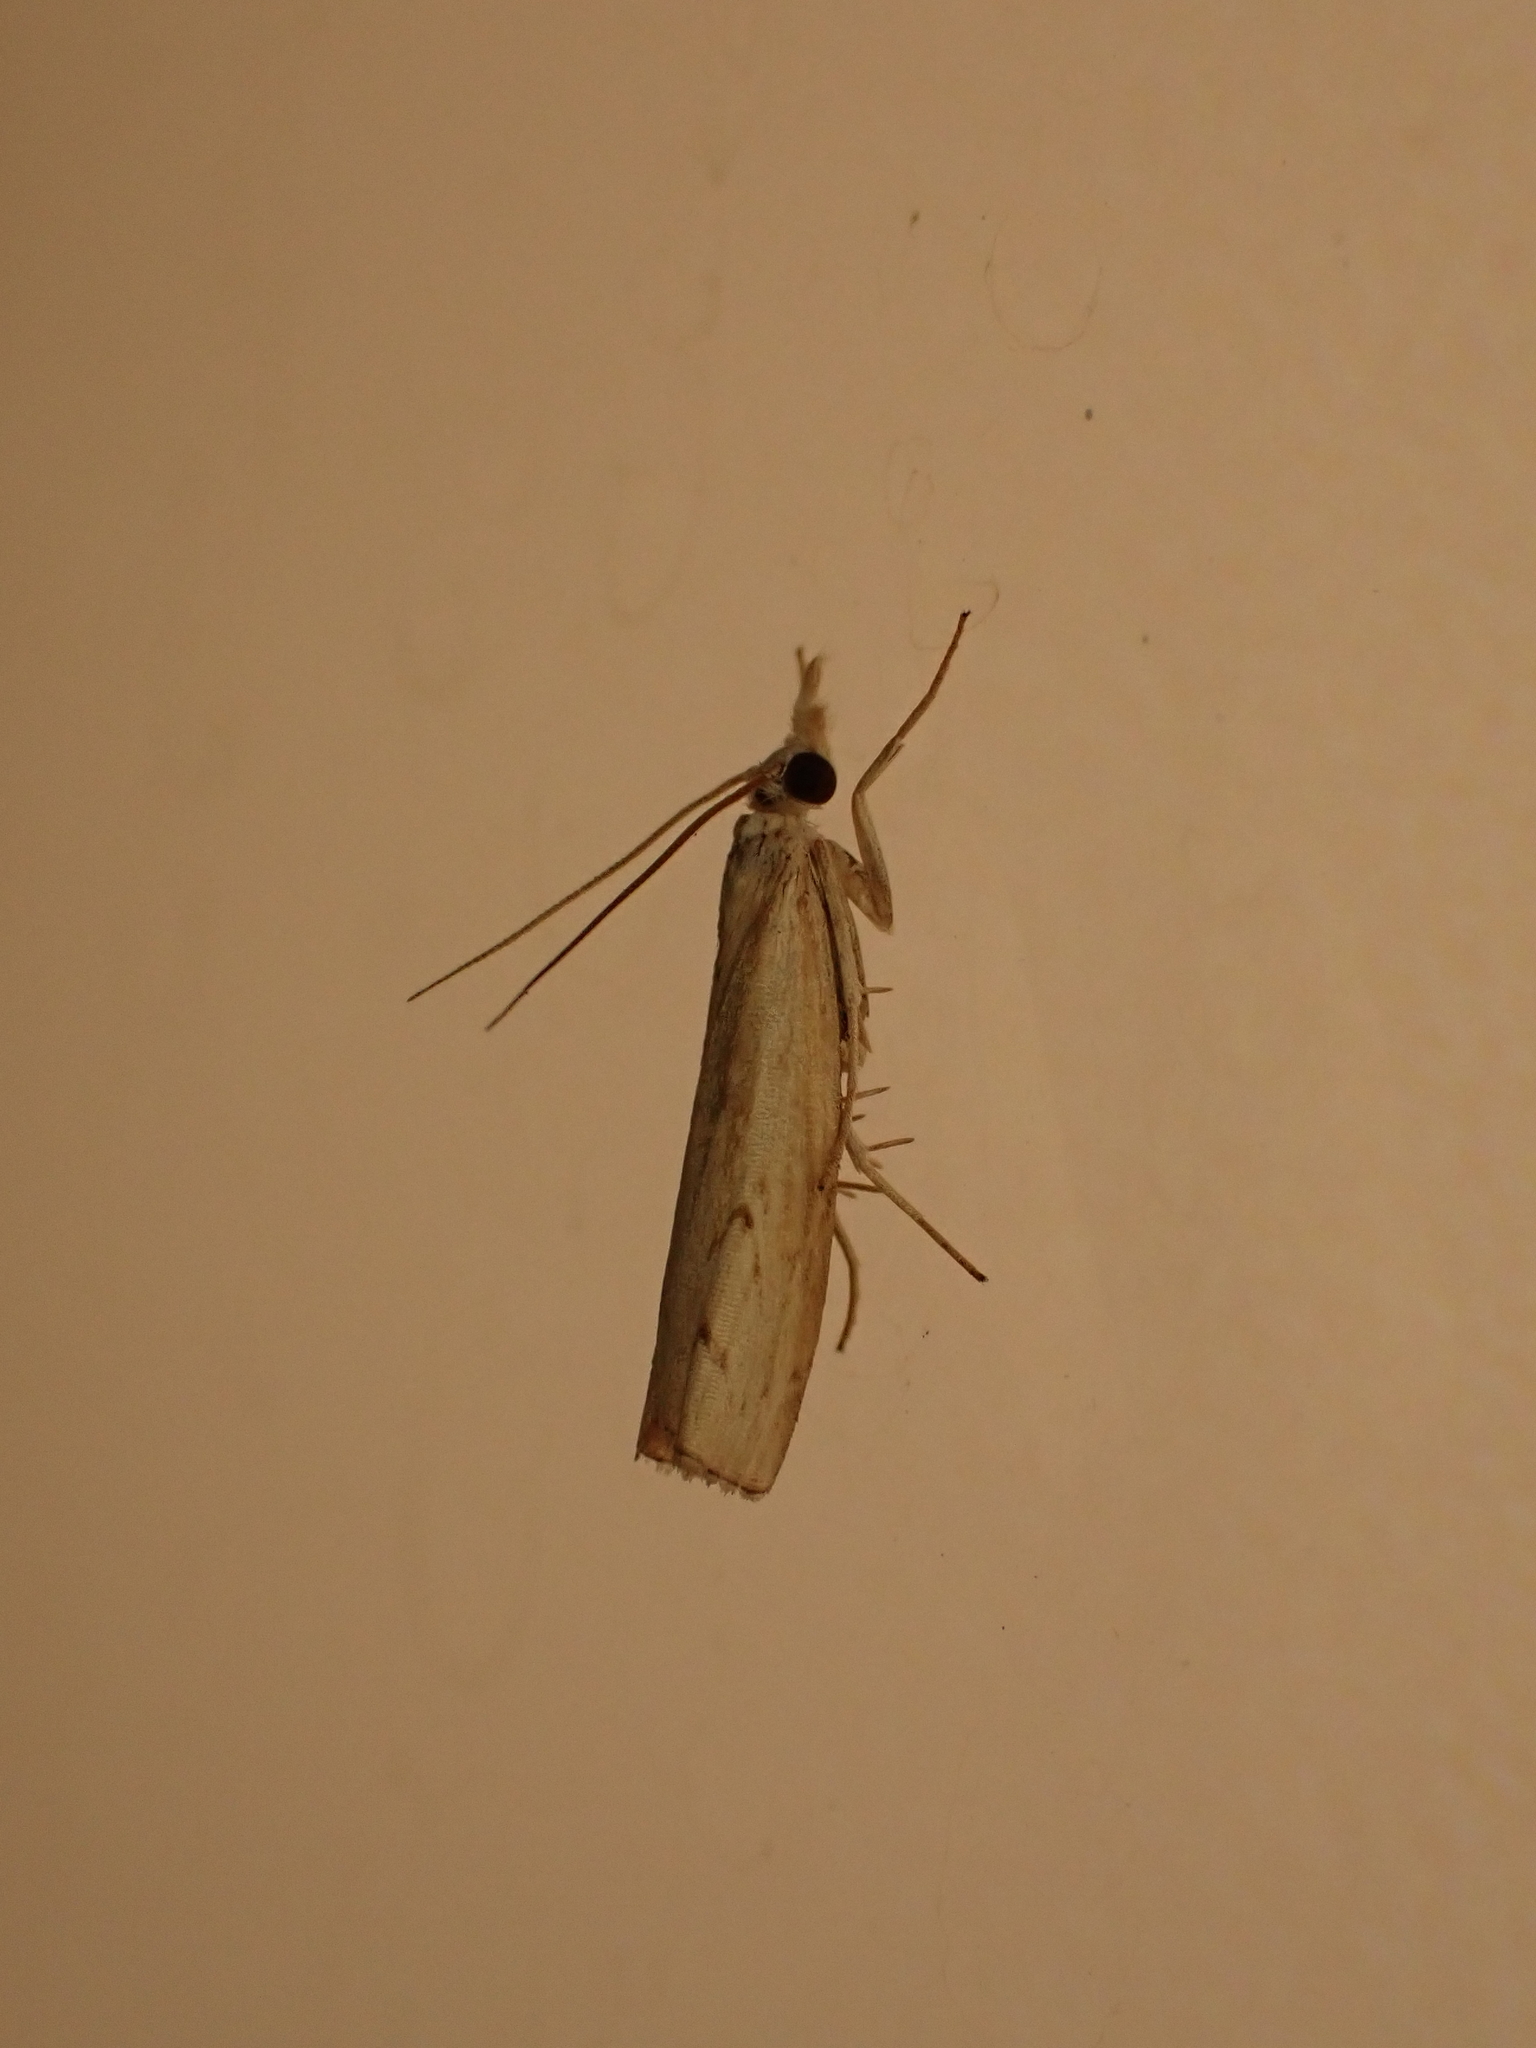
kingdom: Animalia
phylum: Arthropoda
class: Insecta
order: Lepidoptera
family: Crambidae
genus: Culladia
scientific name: Culladia cuneiferellus
